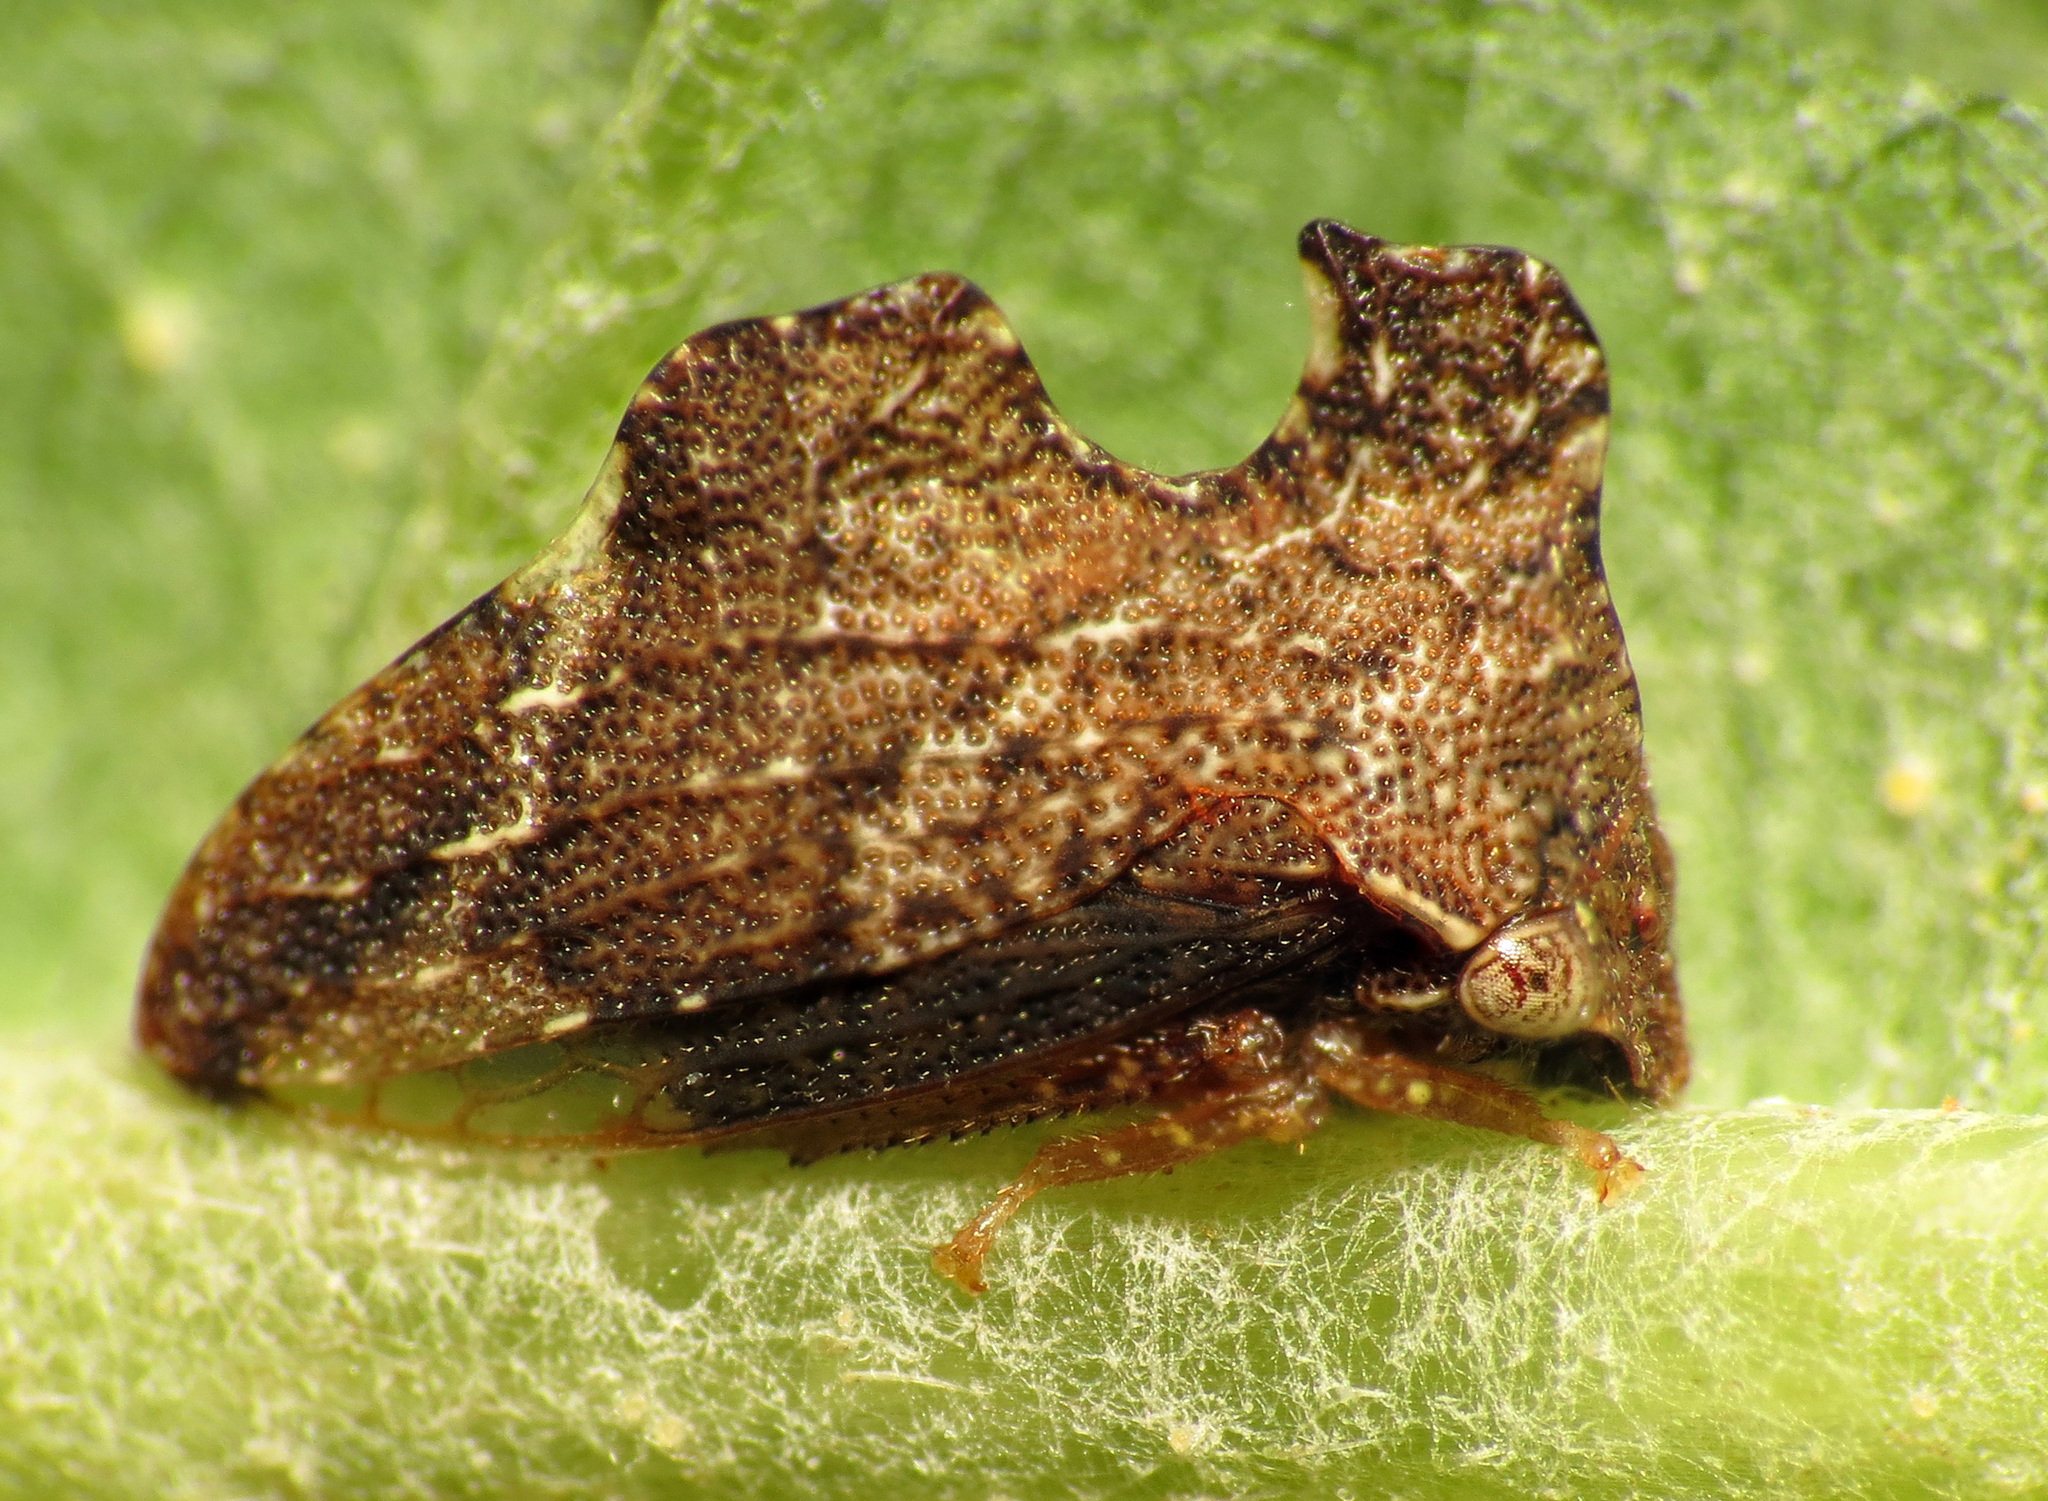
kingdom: Animalia
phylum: Arthropoda
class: Insecta
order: Hemiptera
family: Membracidae
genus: Entylia
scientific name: Entylia carinata
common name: Keeled treehopper
